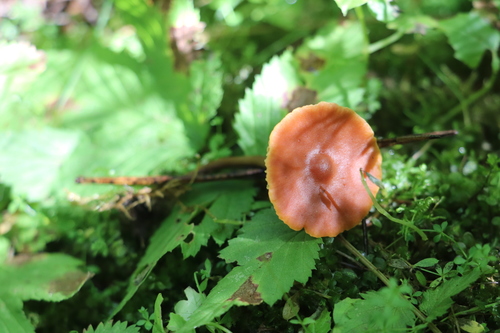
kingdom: Fungi
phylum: Basidiomycota
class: Agaricomycetes
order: Agaricales
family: Hymenogastraceae
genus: Naucoria
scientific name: Naucoria
